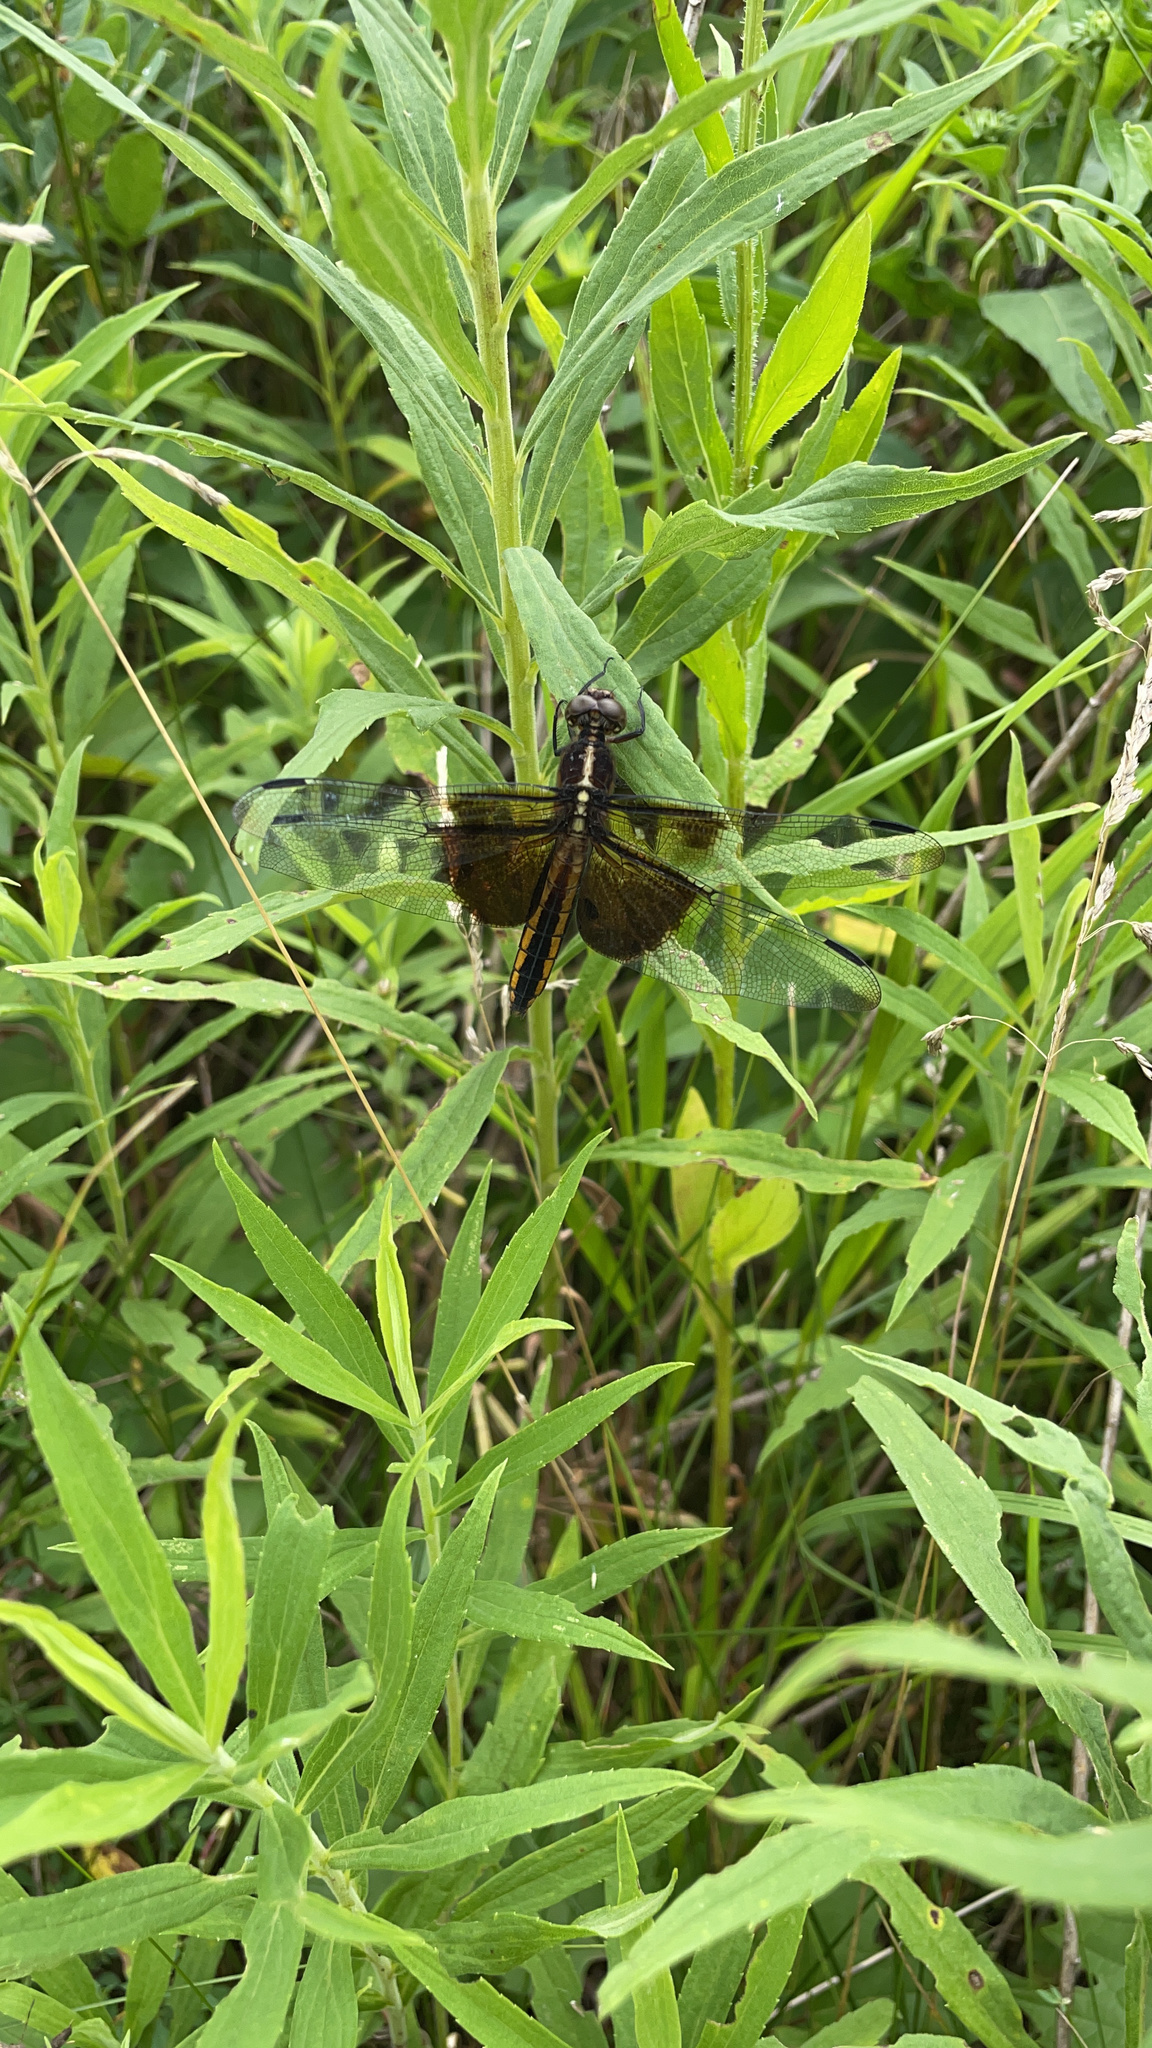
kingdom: Animalia
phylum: Arthropoda
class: Insecta
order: Odonata
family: Libellulidae
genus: Libellula
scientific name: Libellula luctuosa
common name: Widow skimmer
